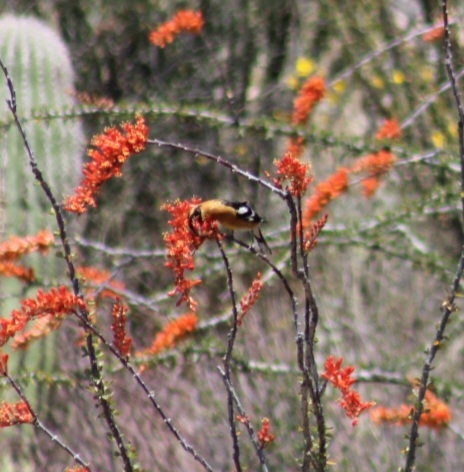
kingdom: Animalia
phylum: Chordata
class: Aves
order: Passeriformes
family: Cardinalidae
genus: Pheucticus
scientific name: Pheucticus melanocephalus
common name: Black-headed grosbeak
